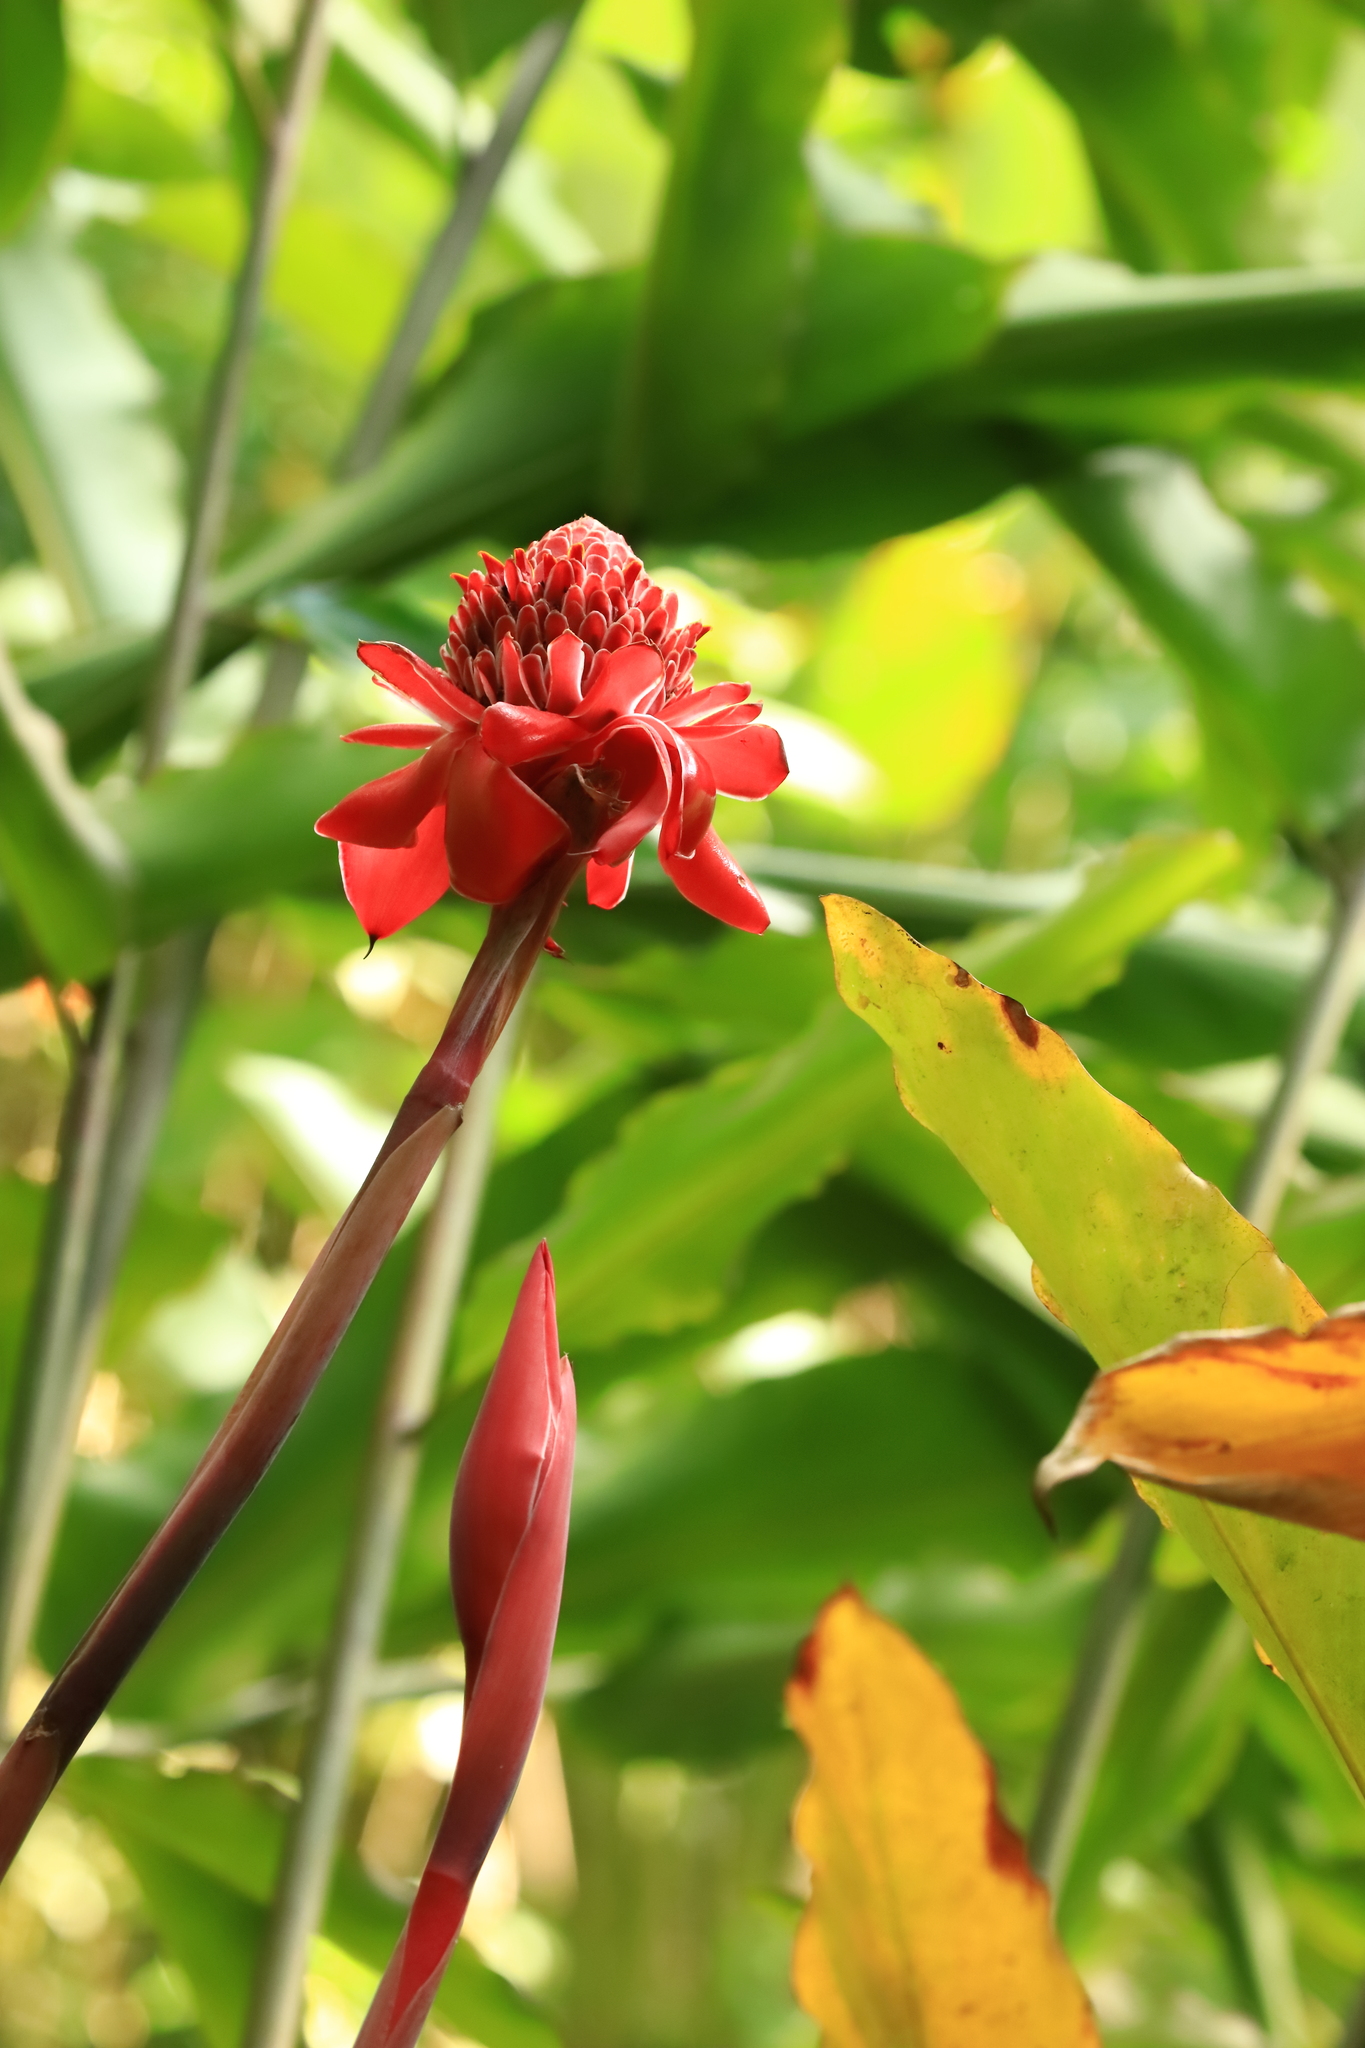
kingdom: Plantae
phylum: Tracheophyta
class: Liliopsida
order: Zingiberales
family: Zingiberaceae
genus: Etlingera
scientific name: Etlingera elatior
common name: Philippine waxflower
